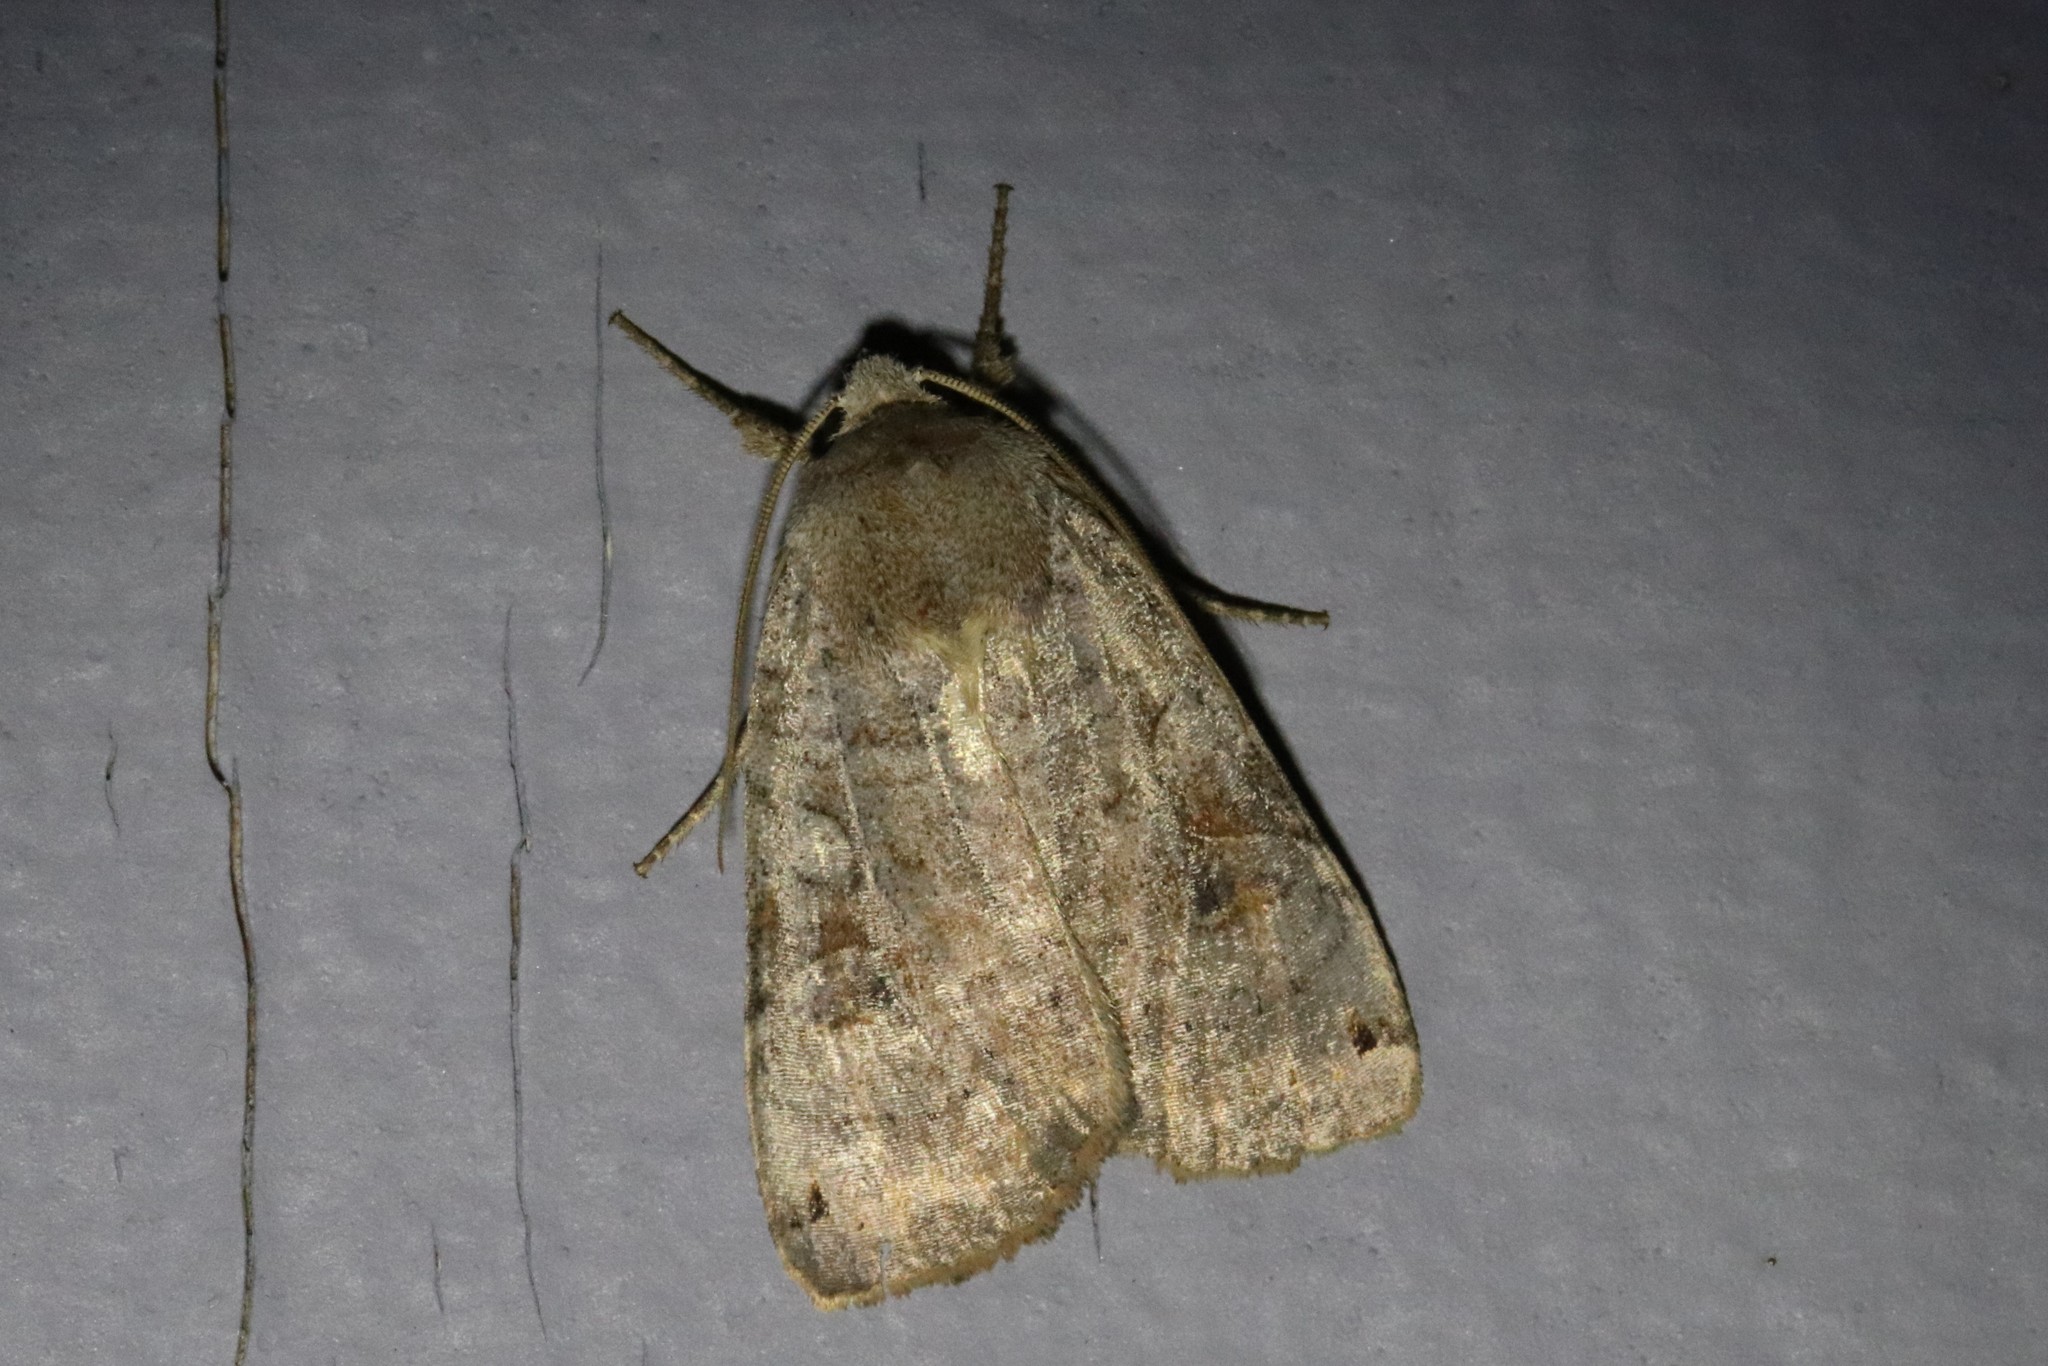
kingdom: Animalia
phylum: Arthropoda
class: Insecta
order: Lepidoptera
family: Noctuidae
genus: Xestia
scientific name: Xestia smithii
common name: Smith's dart
